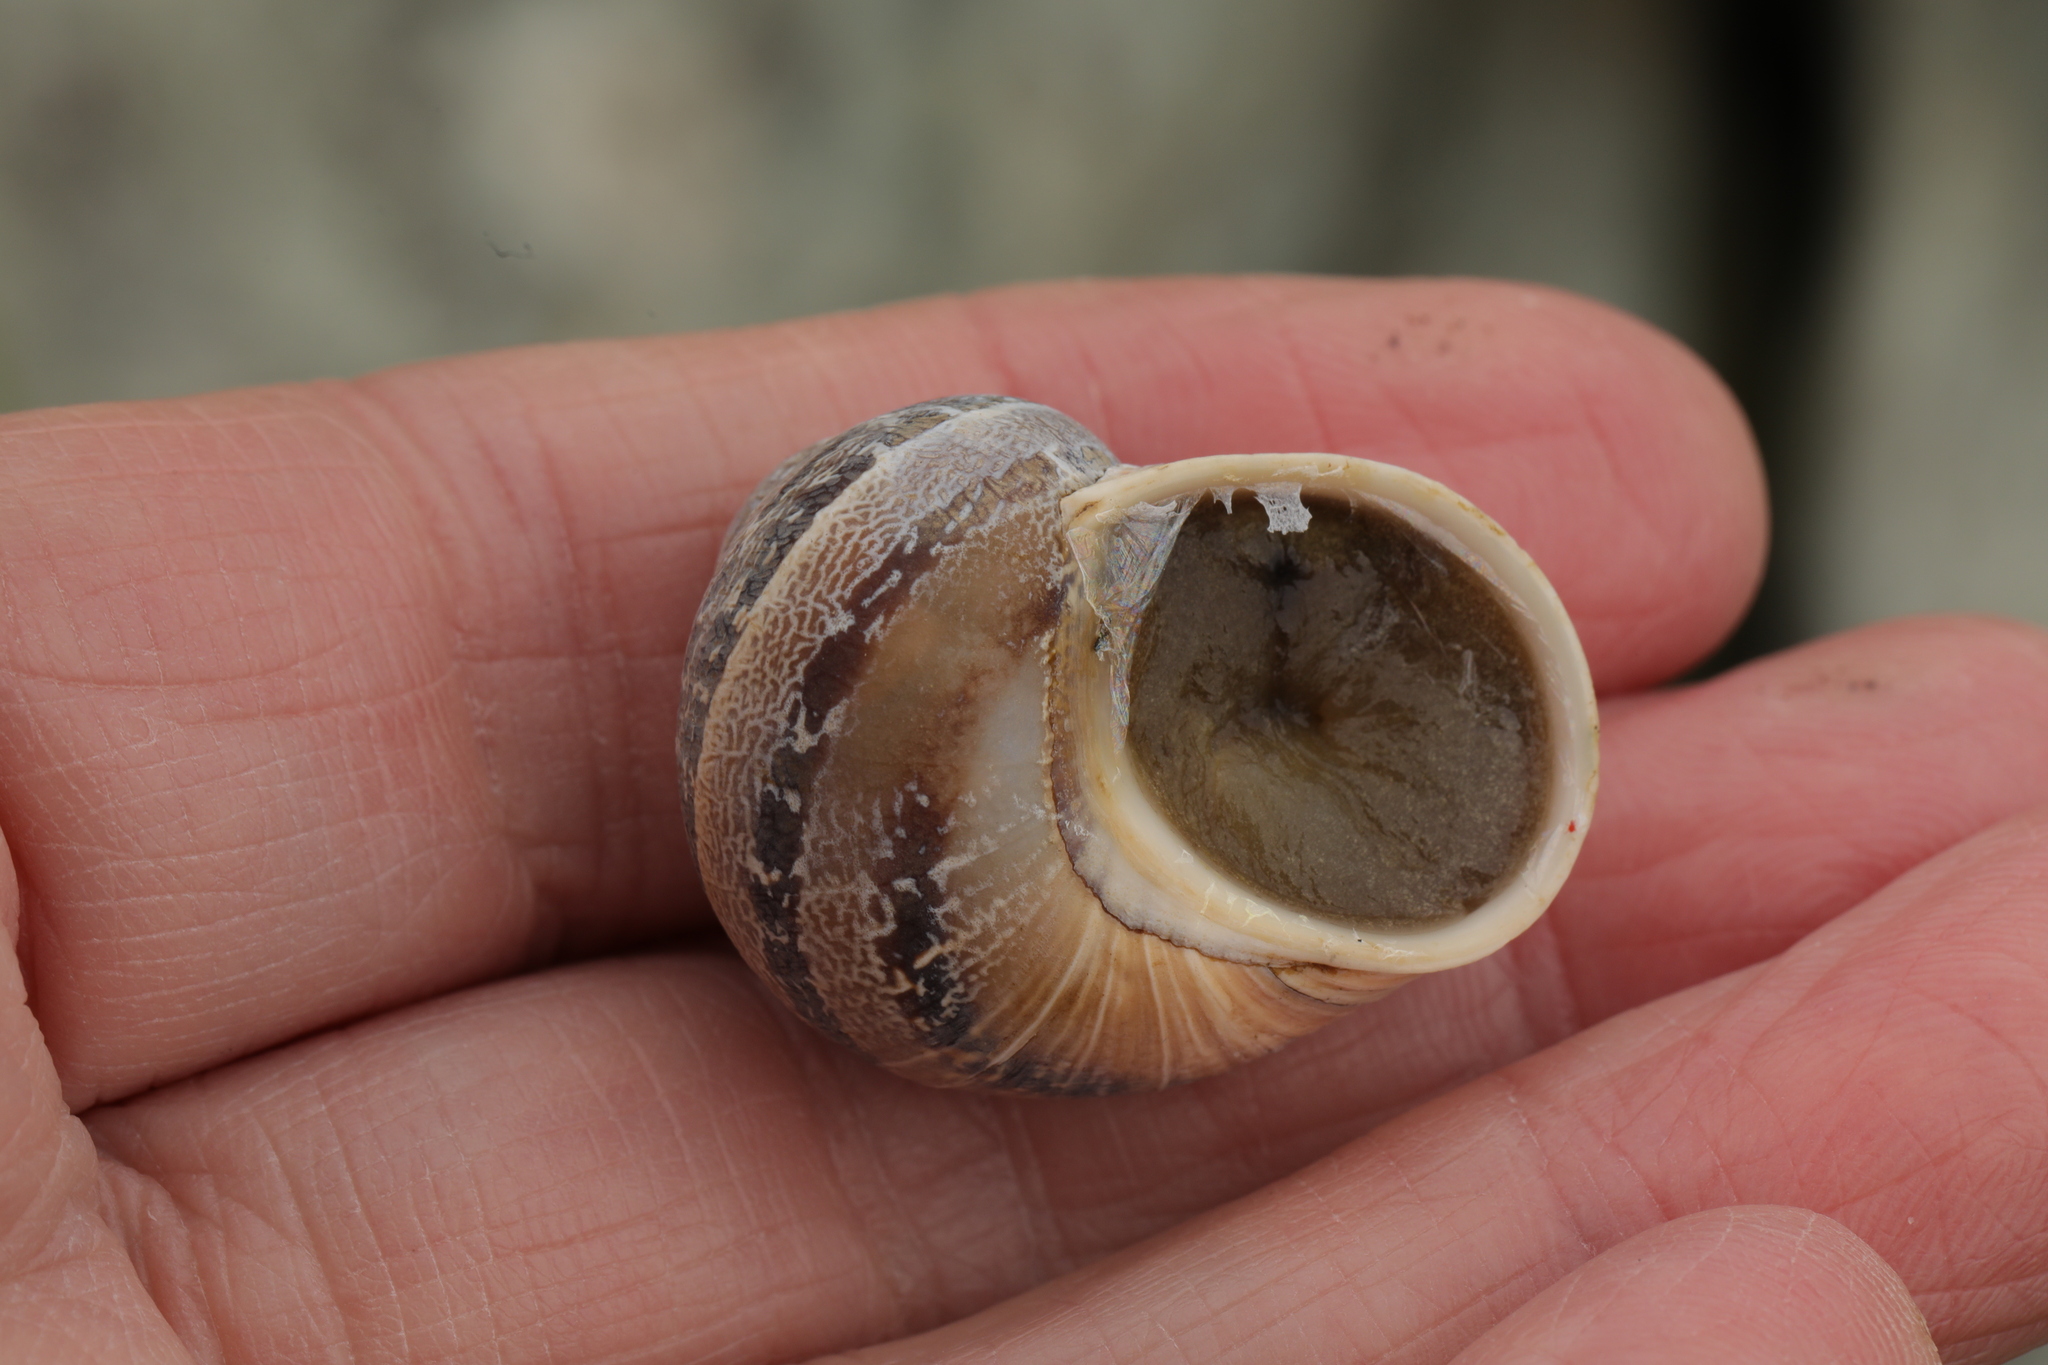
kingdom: Animalia
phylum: Mollusca
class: Gastropoda
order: Stylommatophora
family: Helicidae
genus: Cornu
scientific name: Cornu aspersum
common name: Brown garden snail
